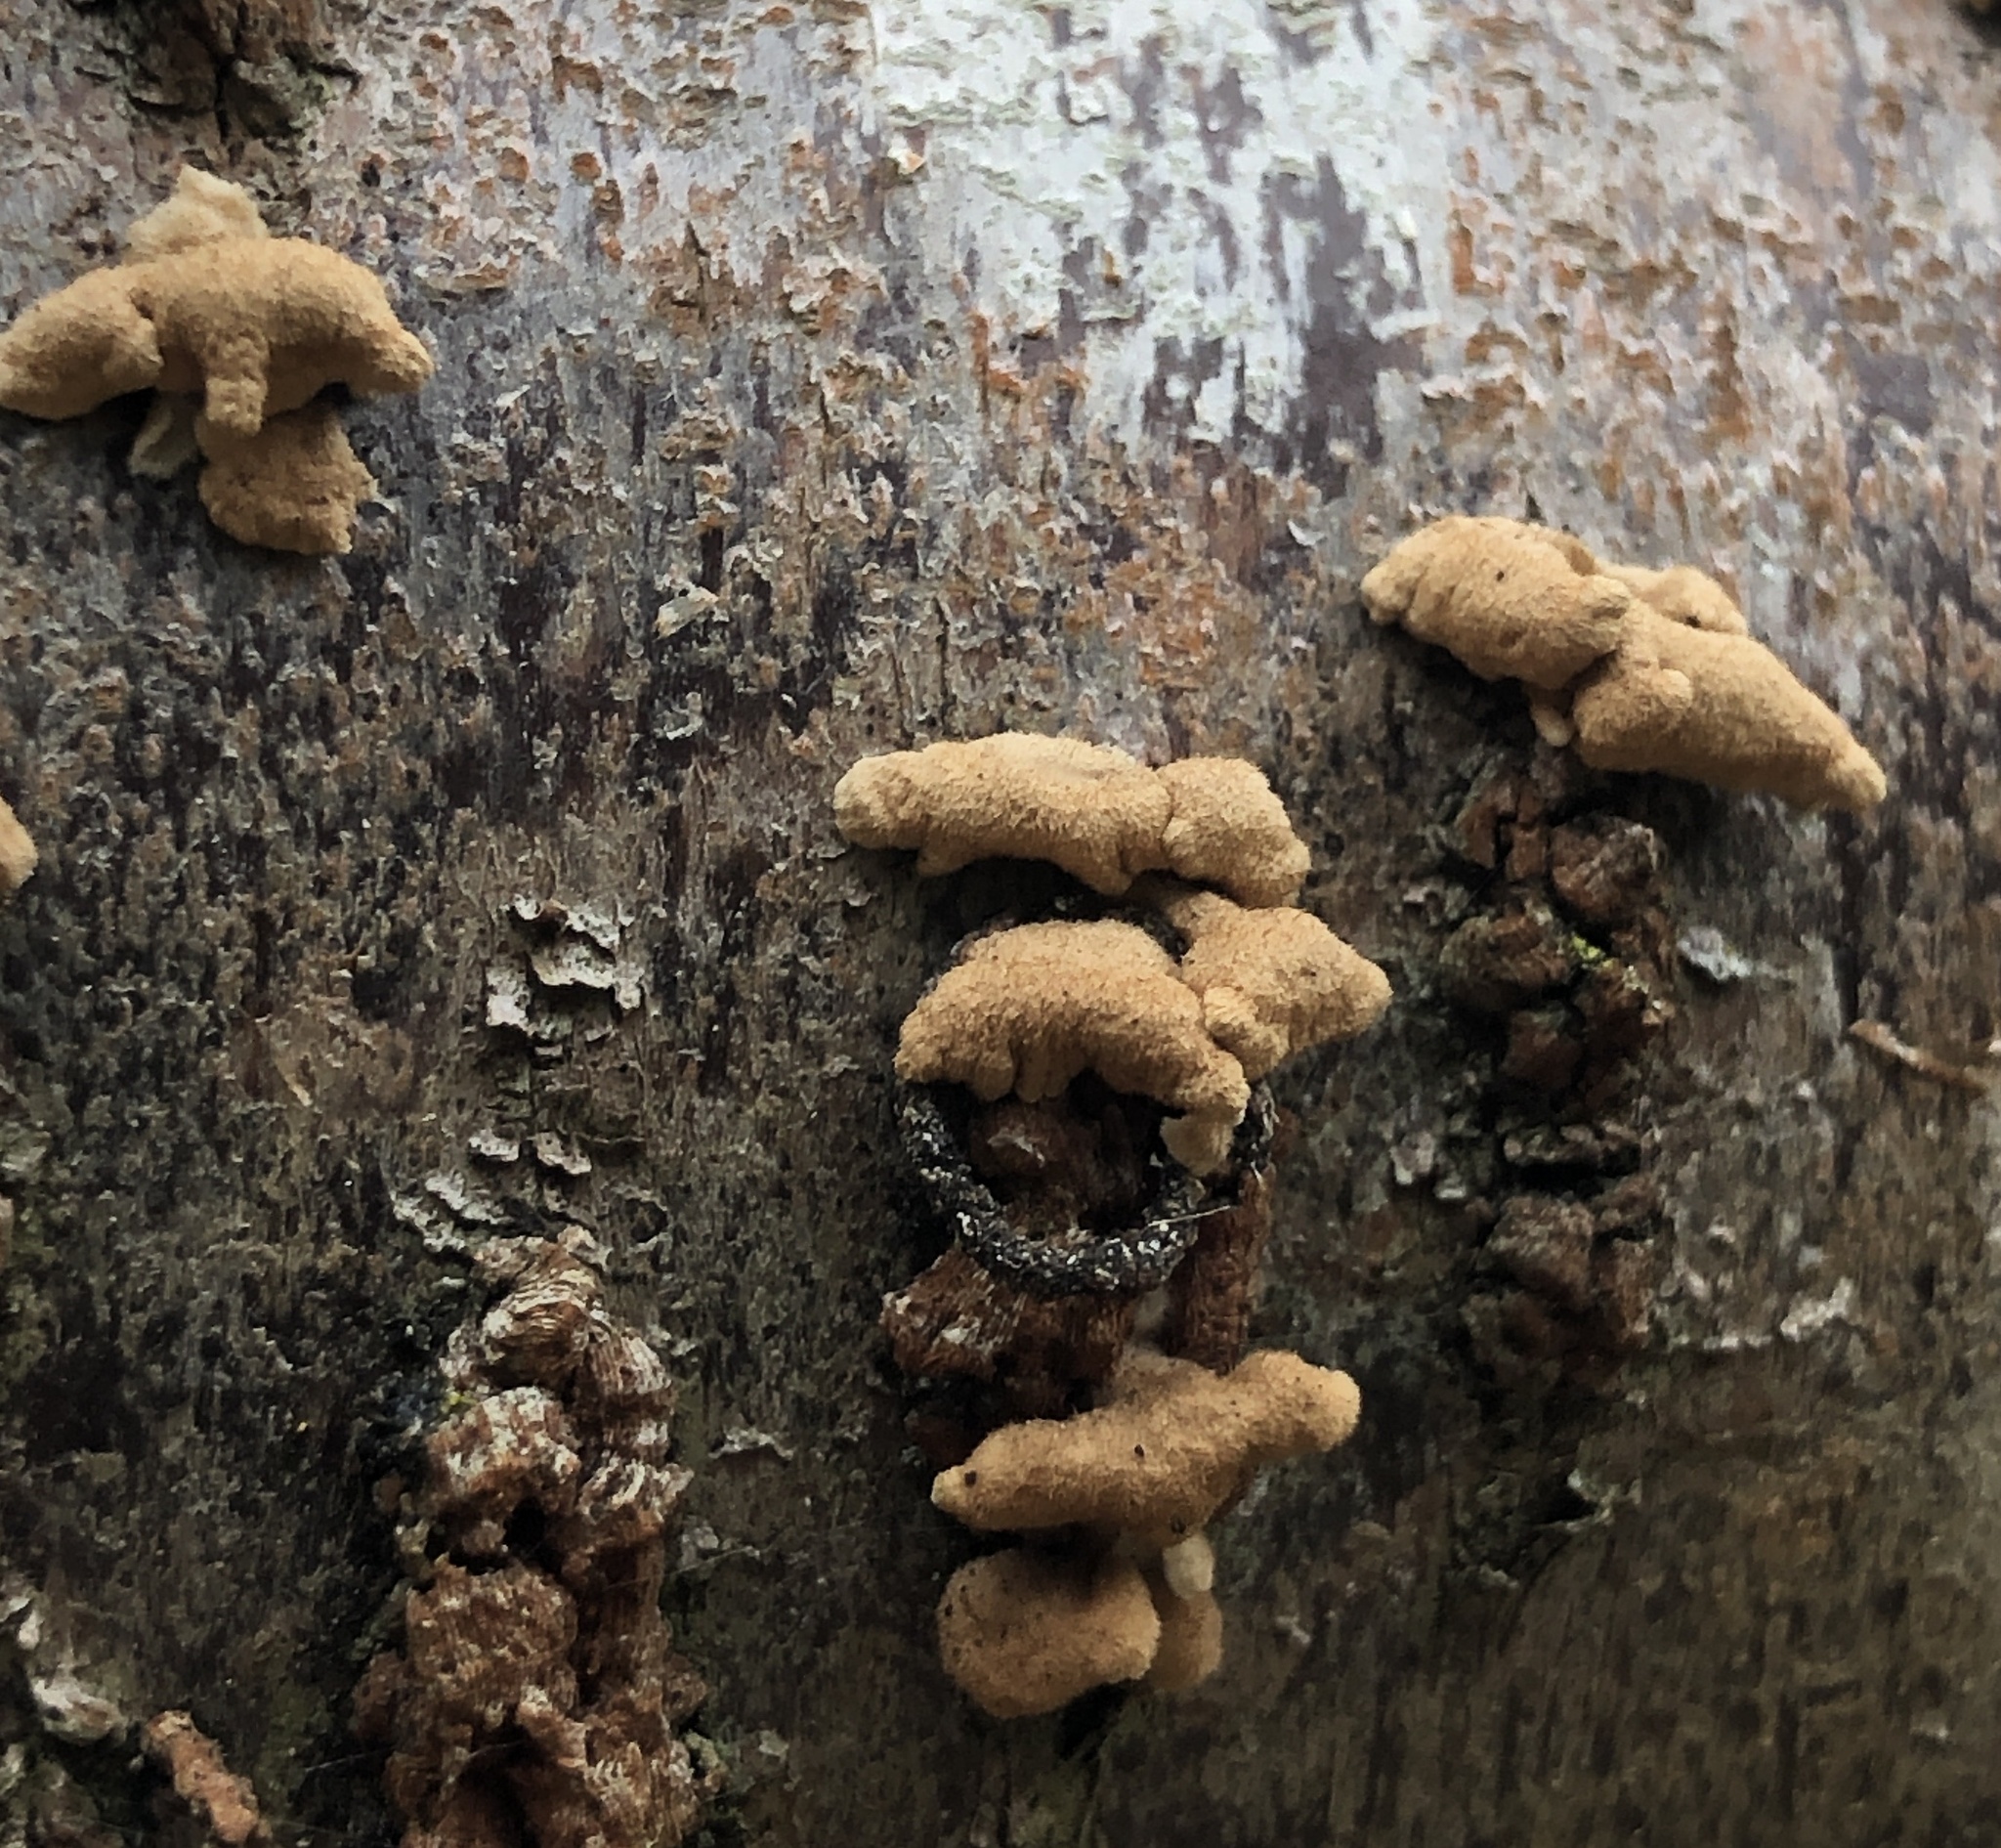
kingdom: Fungi
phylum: Basidiomycota
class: Agaricomycetes
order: Amylocorticiales
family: Amylocorticiaceae
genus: Plicaturopsis
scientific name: Plicaturopsis crispa
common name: Crimped gill
